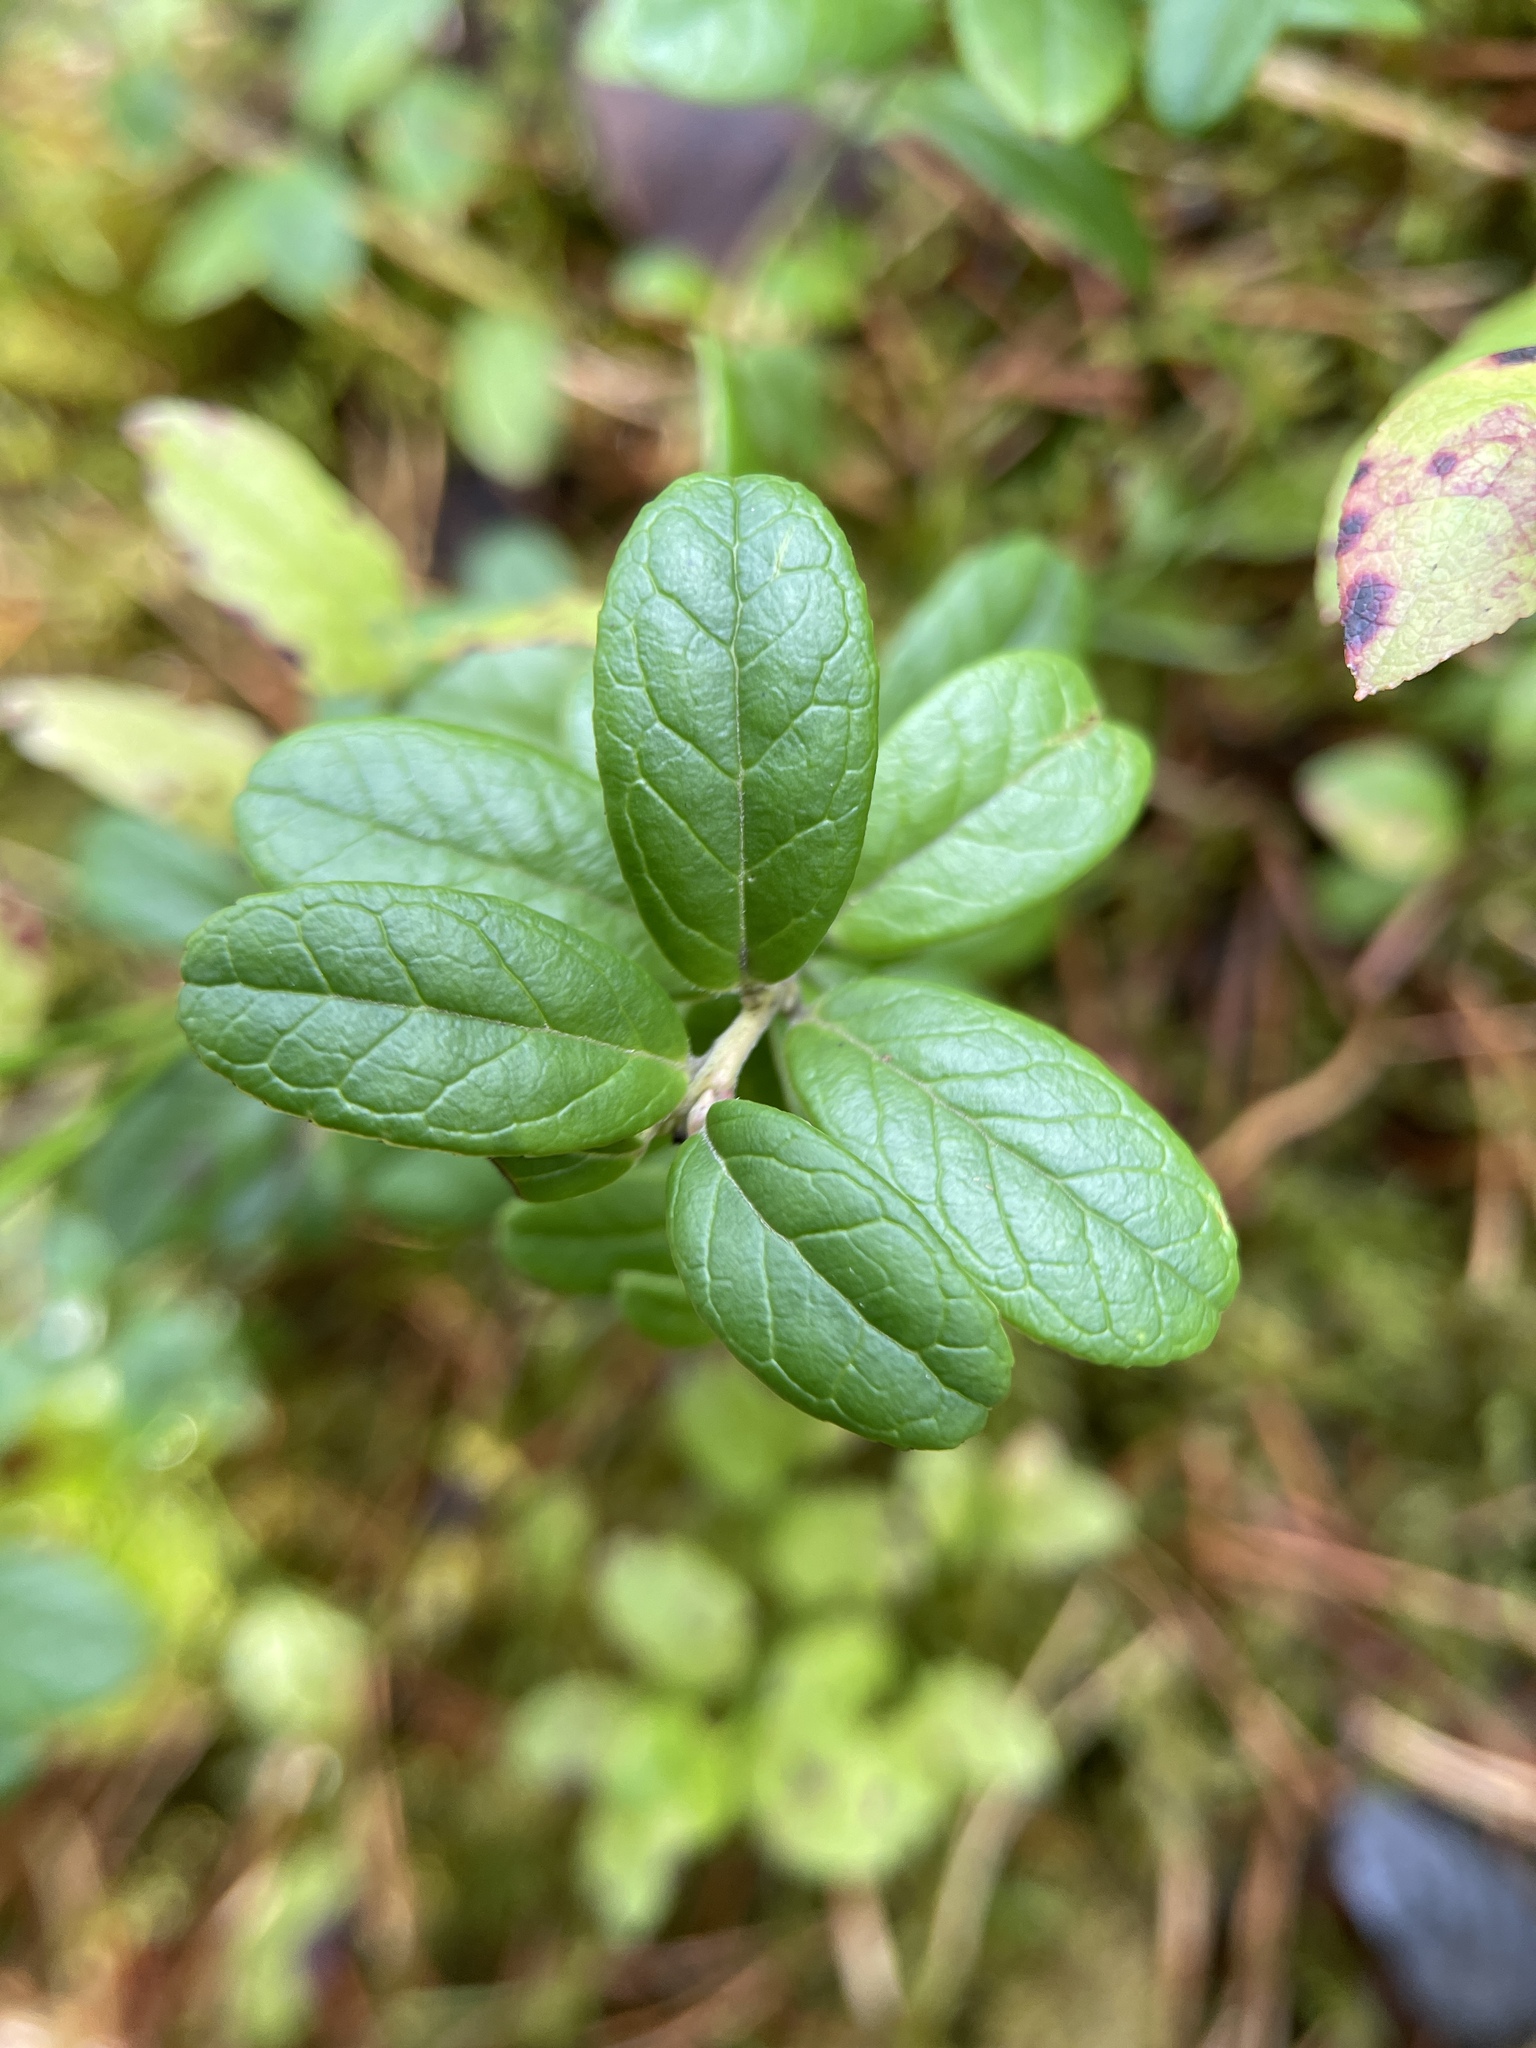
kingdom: Plantae
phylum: Tracheophyta
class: Magnoliopsida
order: Ericales
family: Ericaceae
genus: Vaccinium
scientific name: Vaccinium vitis-idaea
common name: Cowberry
